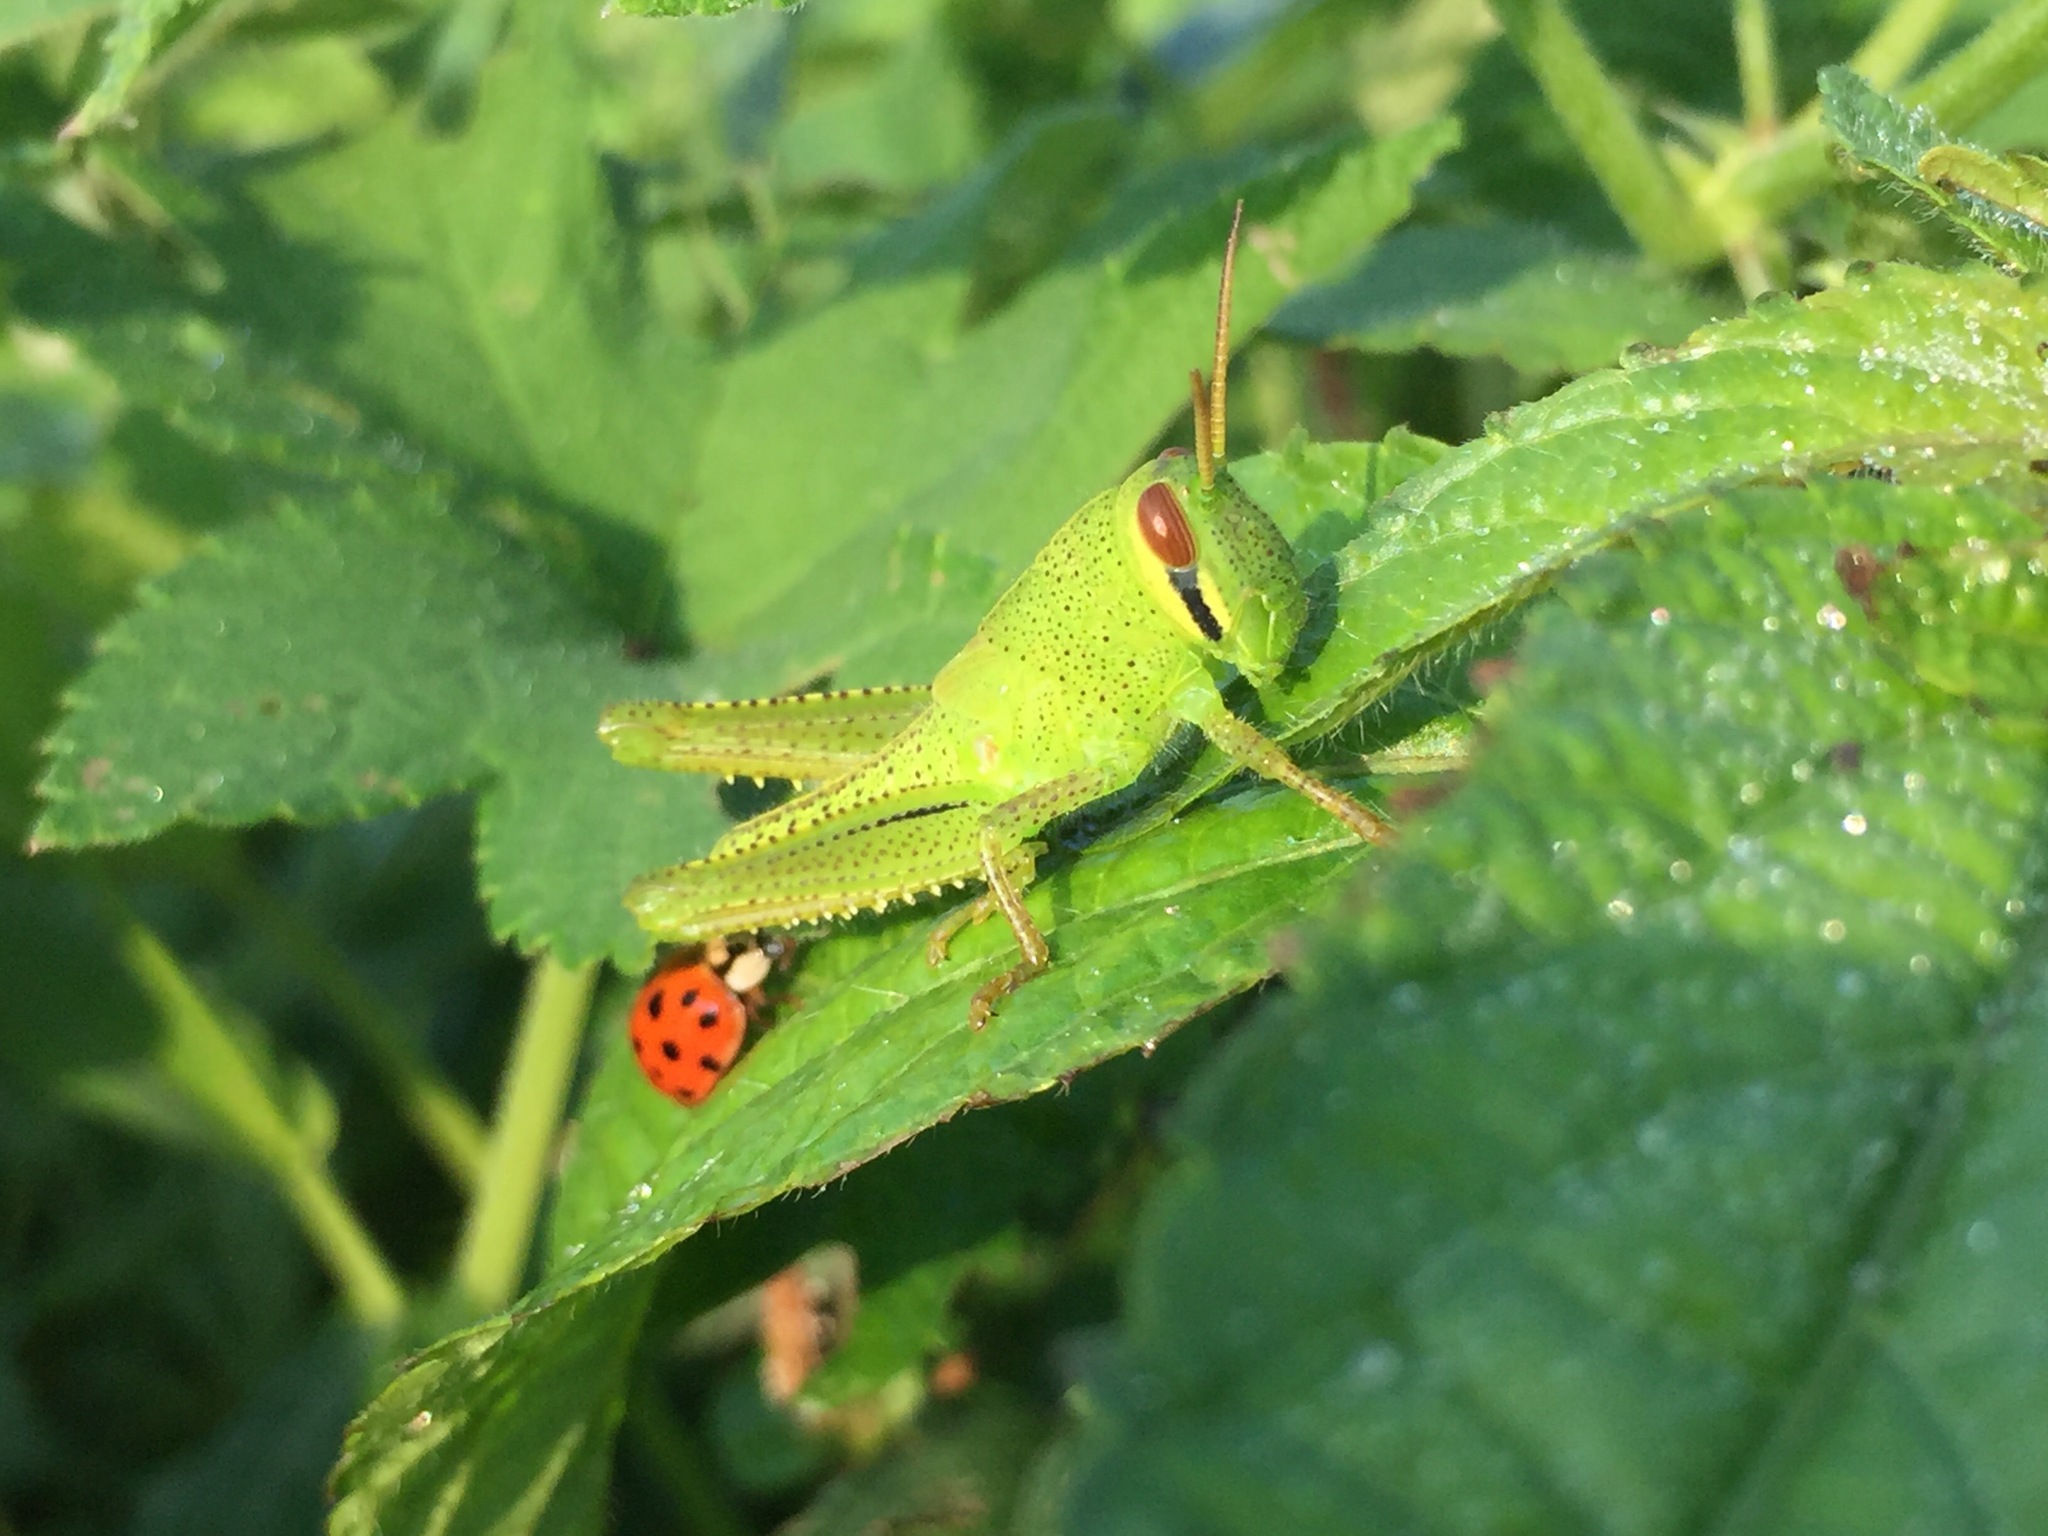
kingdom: Animalia
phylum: Arthropoda
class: Insecta
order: Orthoptera
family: Acrididae
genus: Patanga
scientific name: Patanga japonica
